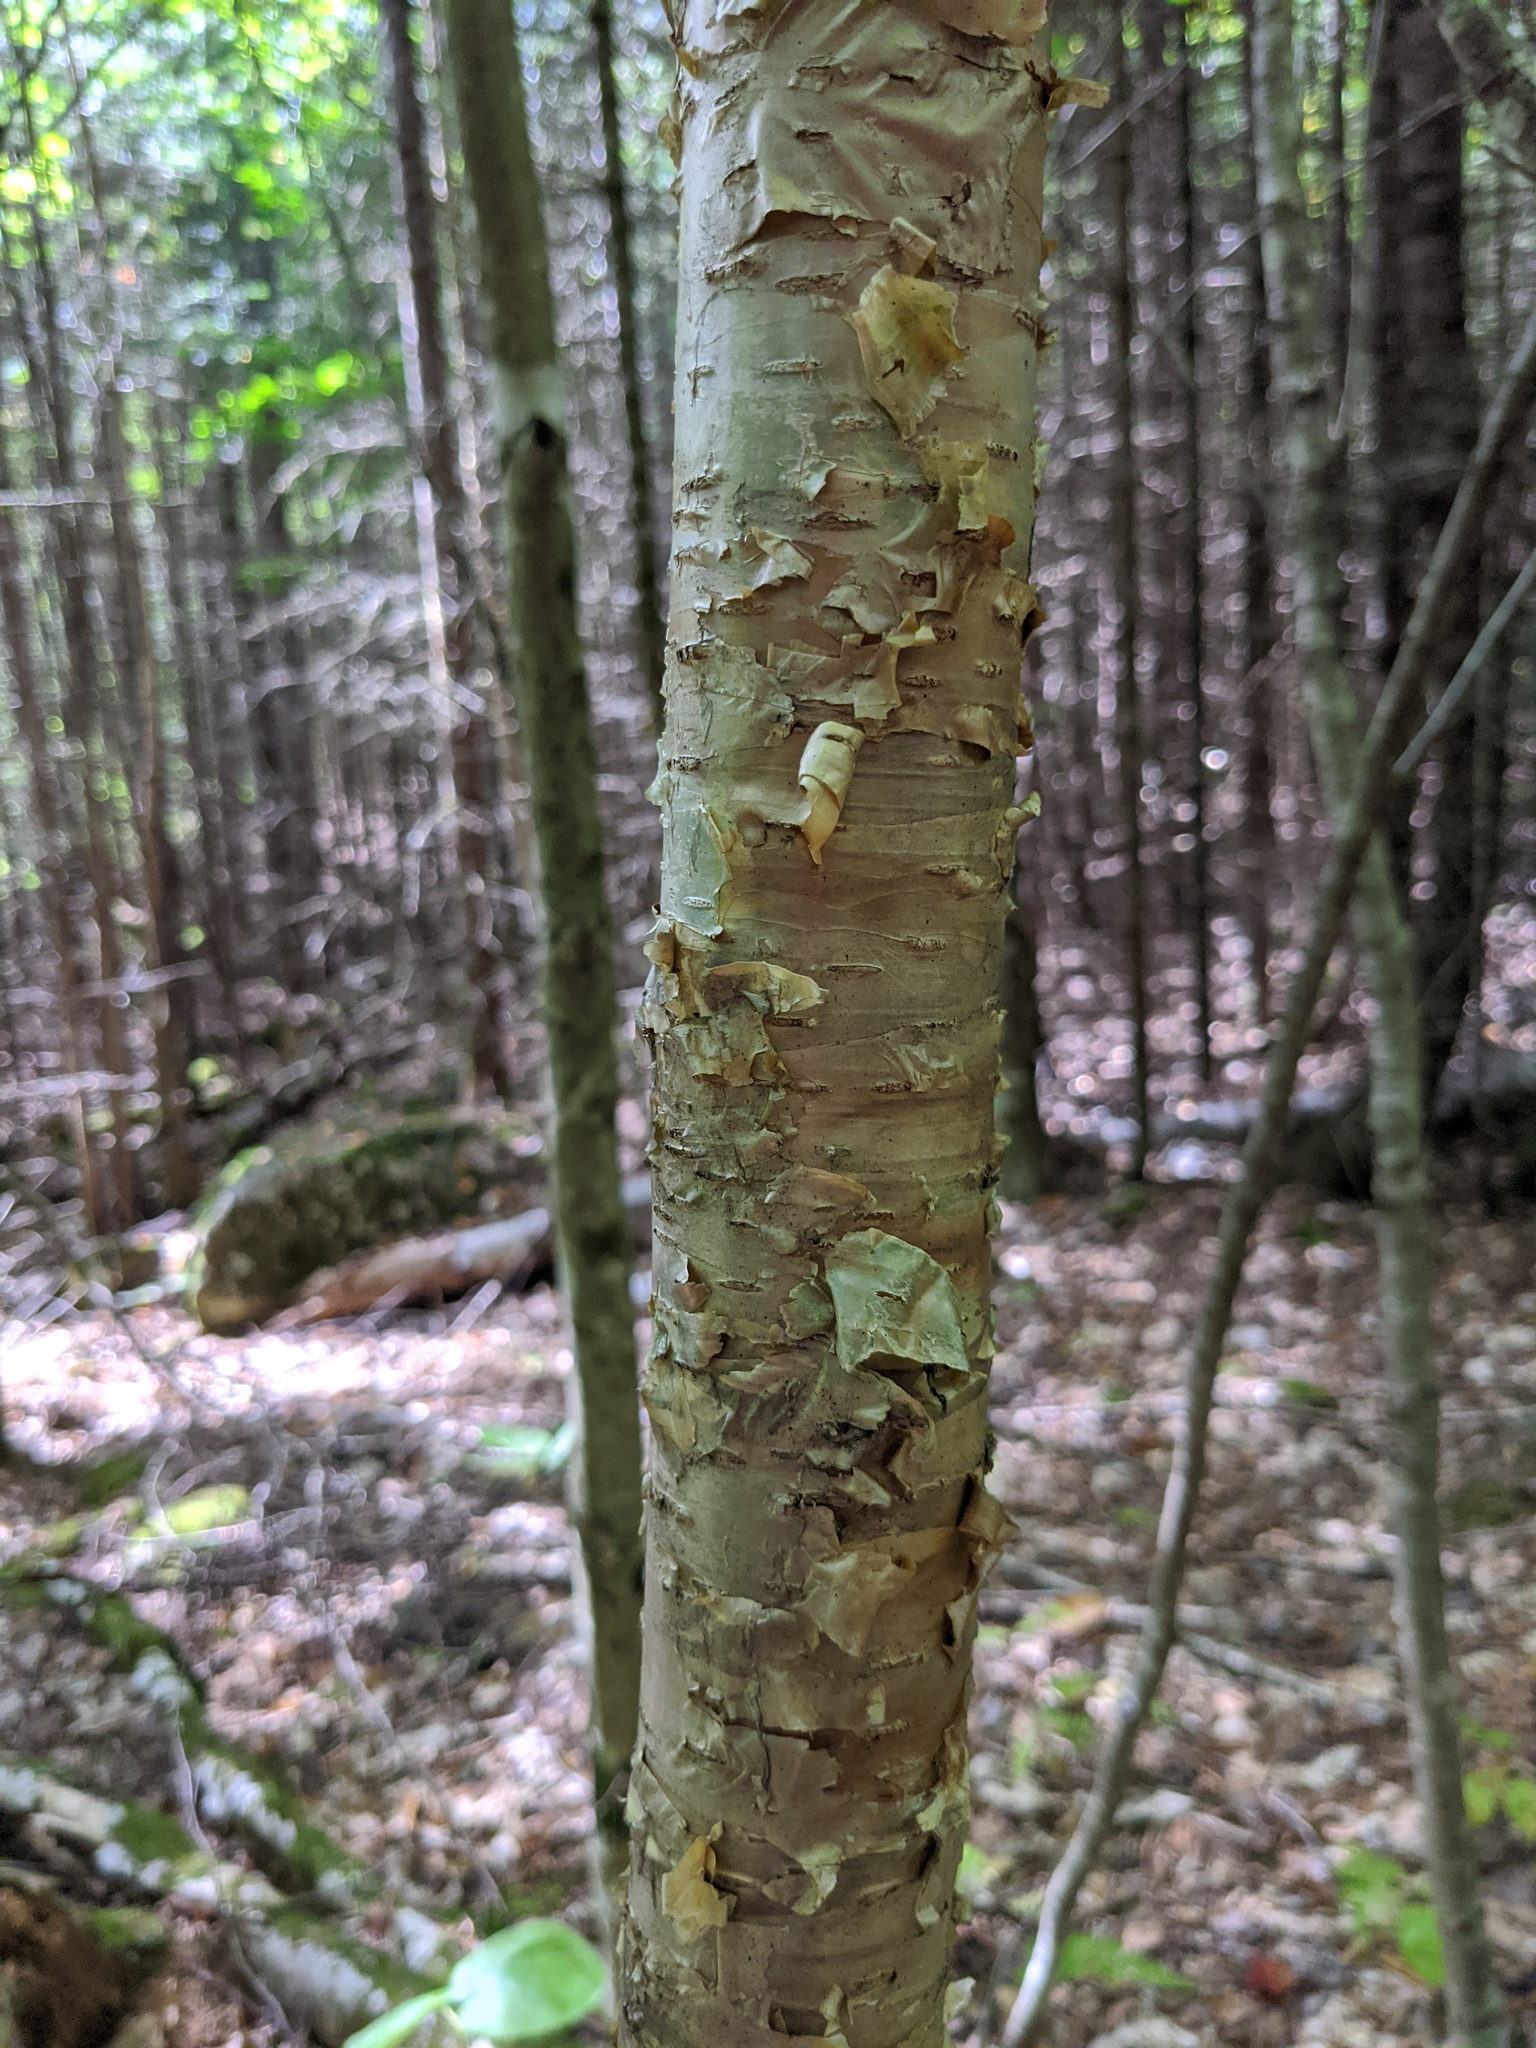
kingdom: Plantae
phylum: Tracheophyta
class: Magnoliopsida
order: Fagales
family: Betulaceae
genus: Betula
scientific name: Betula alleghaniensis
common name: Yellow birch
